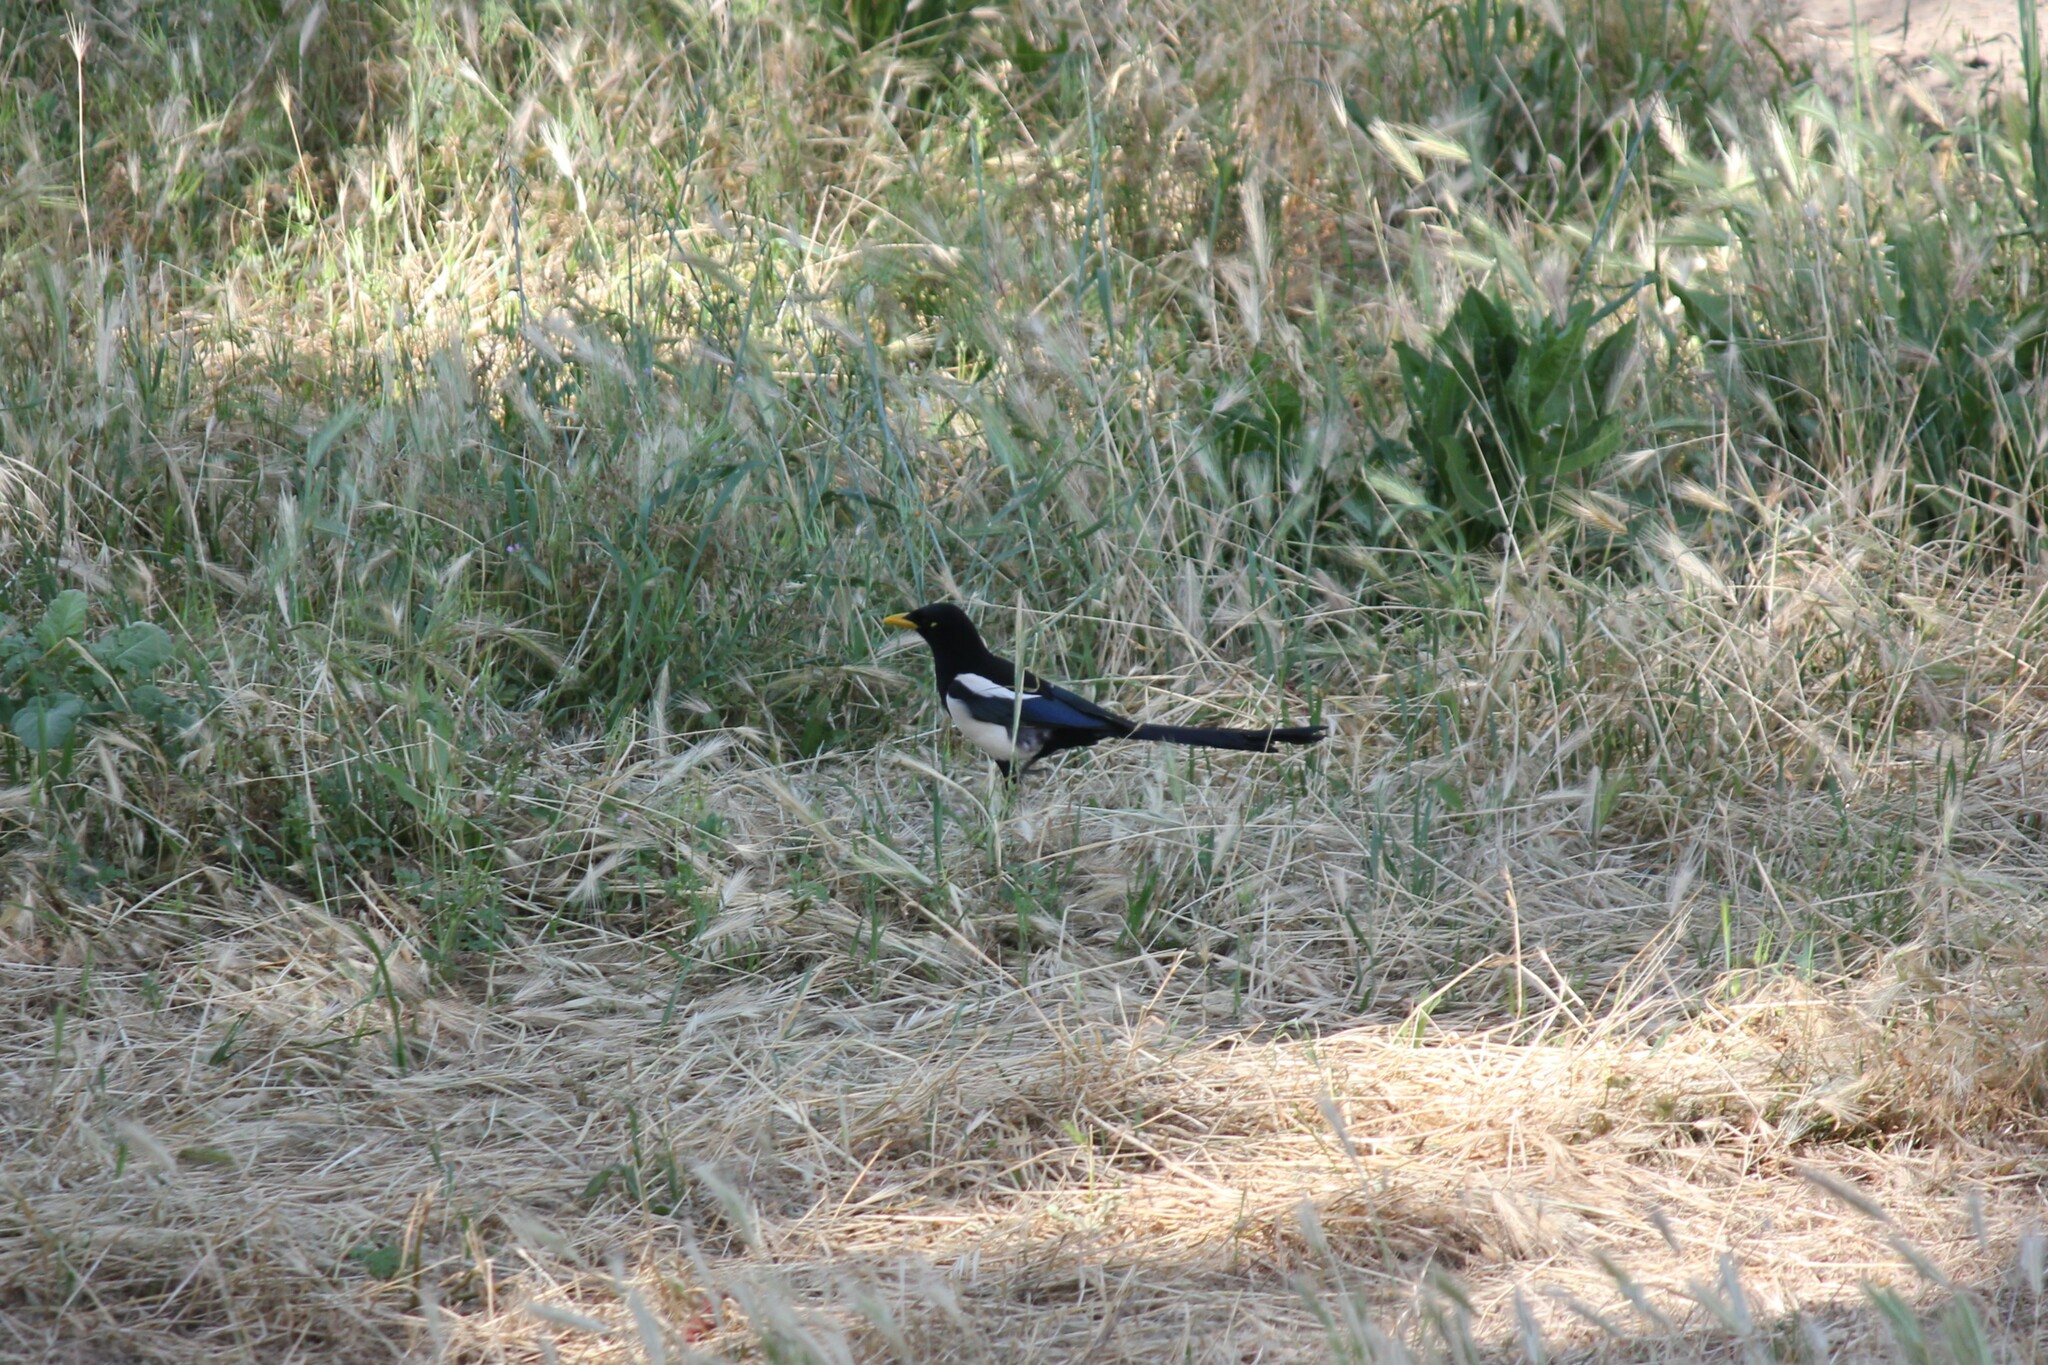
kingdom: Animalia
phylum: Chordata
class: Aves
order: Passeriformes
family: Corvidae
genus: Pica
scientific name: Pica nuttalli
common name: Yellow-billed magpie
